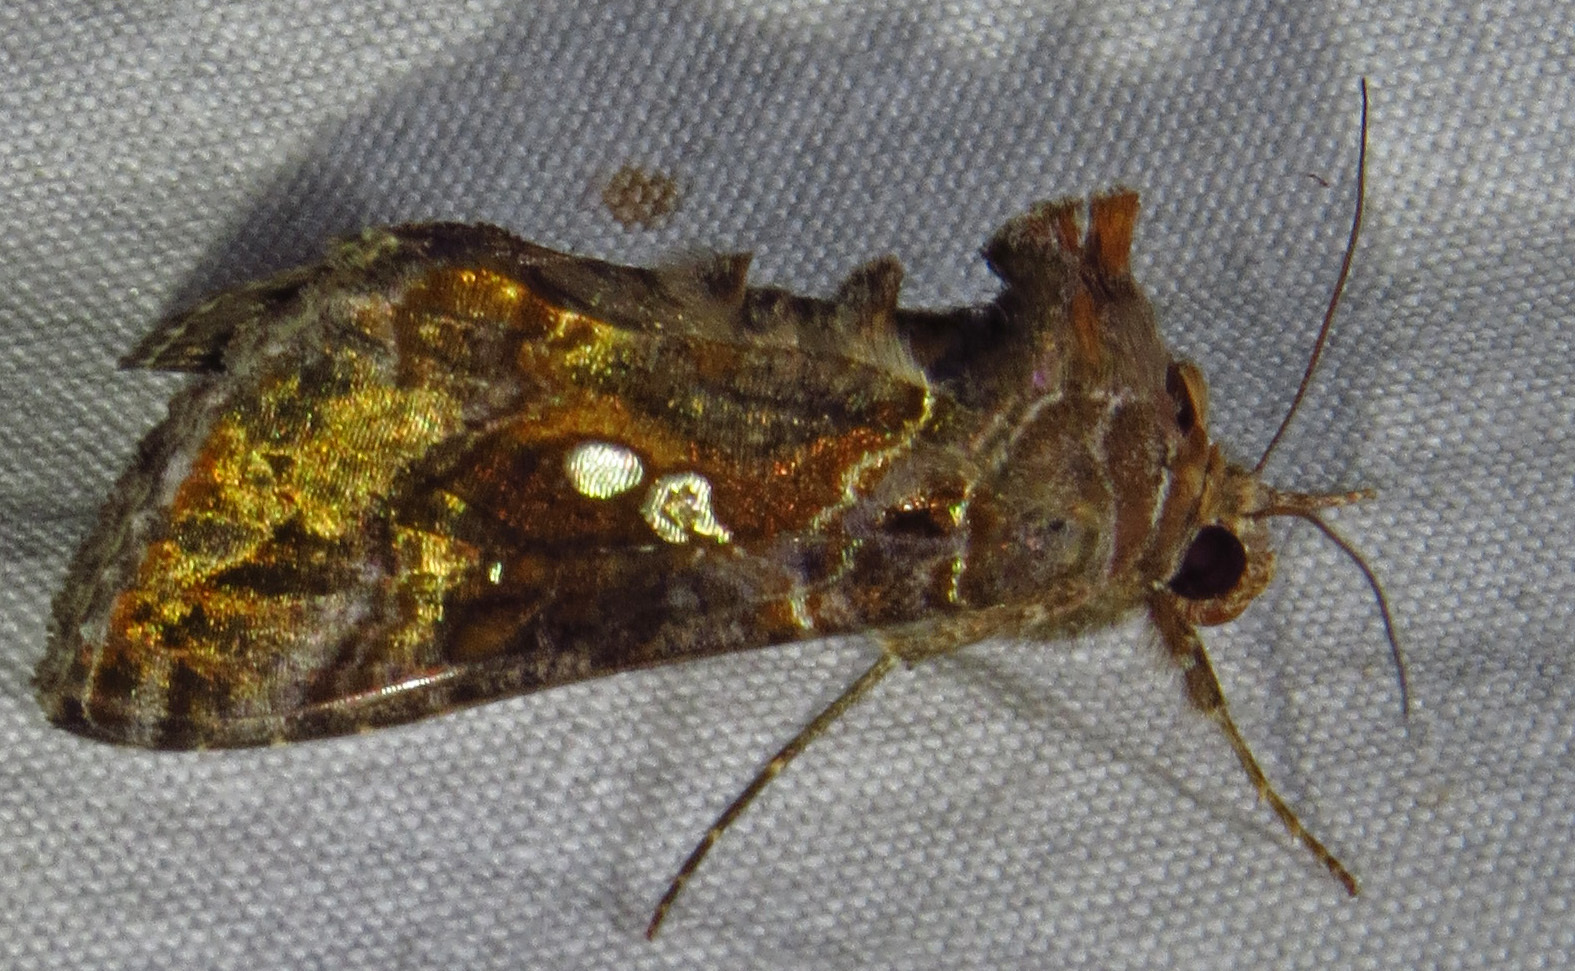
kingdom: Animalia
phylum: Arthropoda
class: Insecta
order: Lepidoptera
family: Noctuidae
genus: Chrysodeixis
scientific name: Chrysodeixis includens
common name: Cutworm moth
